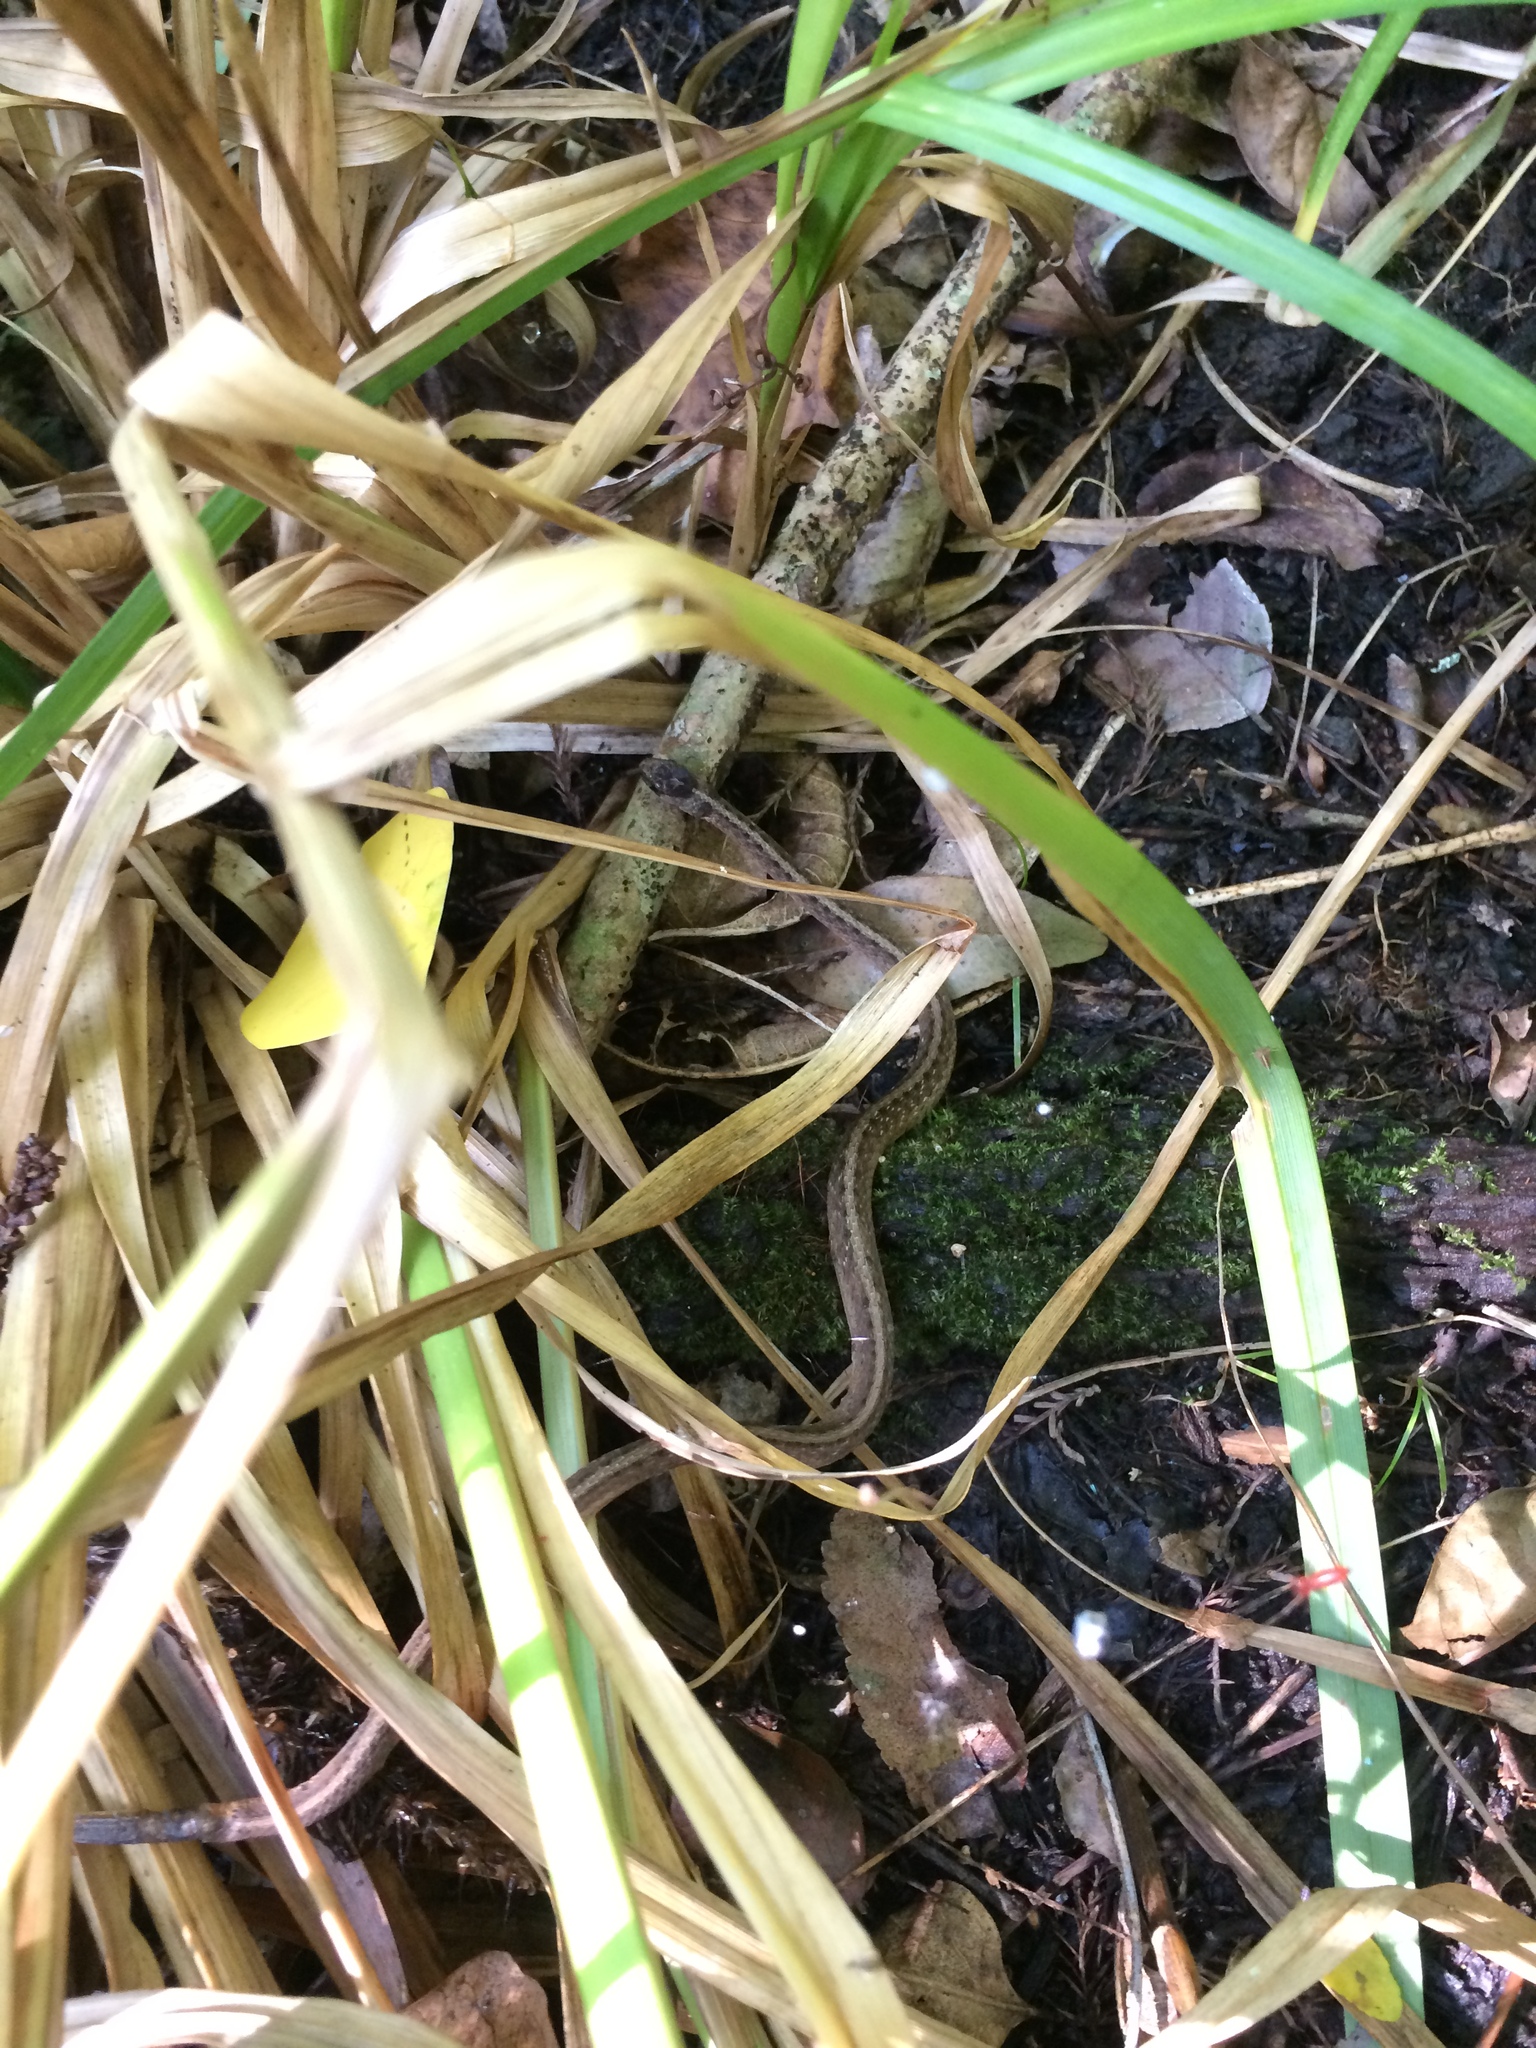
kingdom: Animalia
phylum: Chordata
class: Squamata
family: Colubridae
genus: Storeria
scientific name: Storeria dekayi
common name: (dekay’s) brown snake
